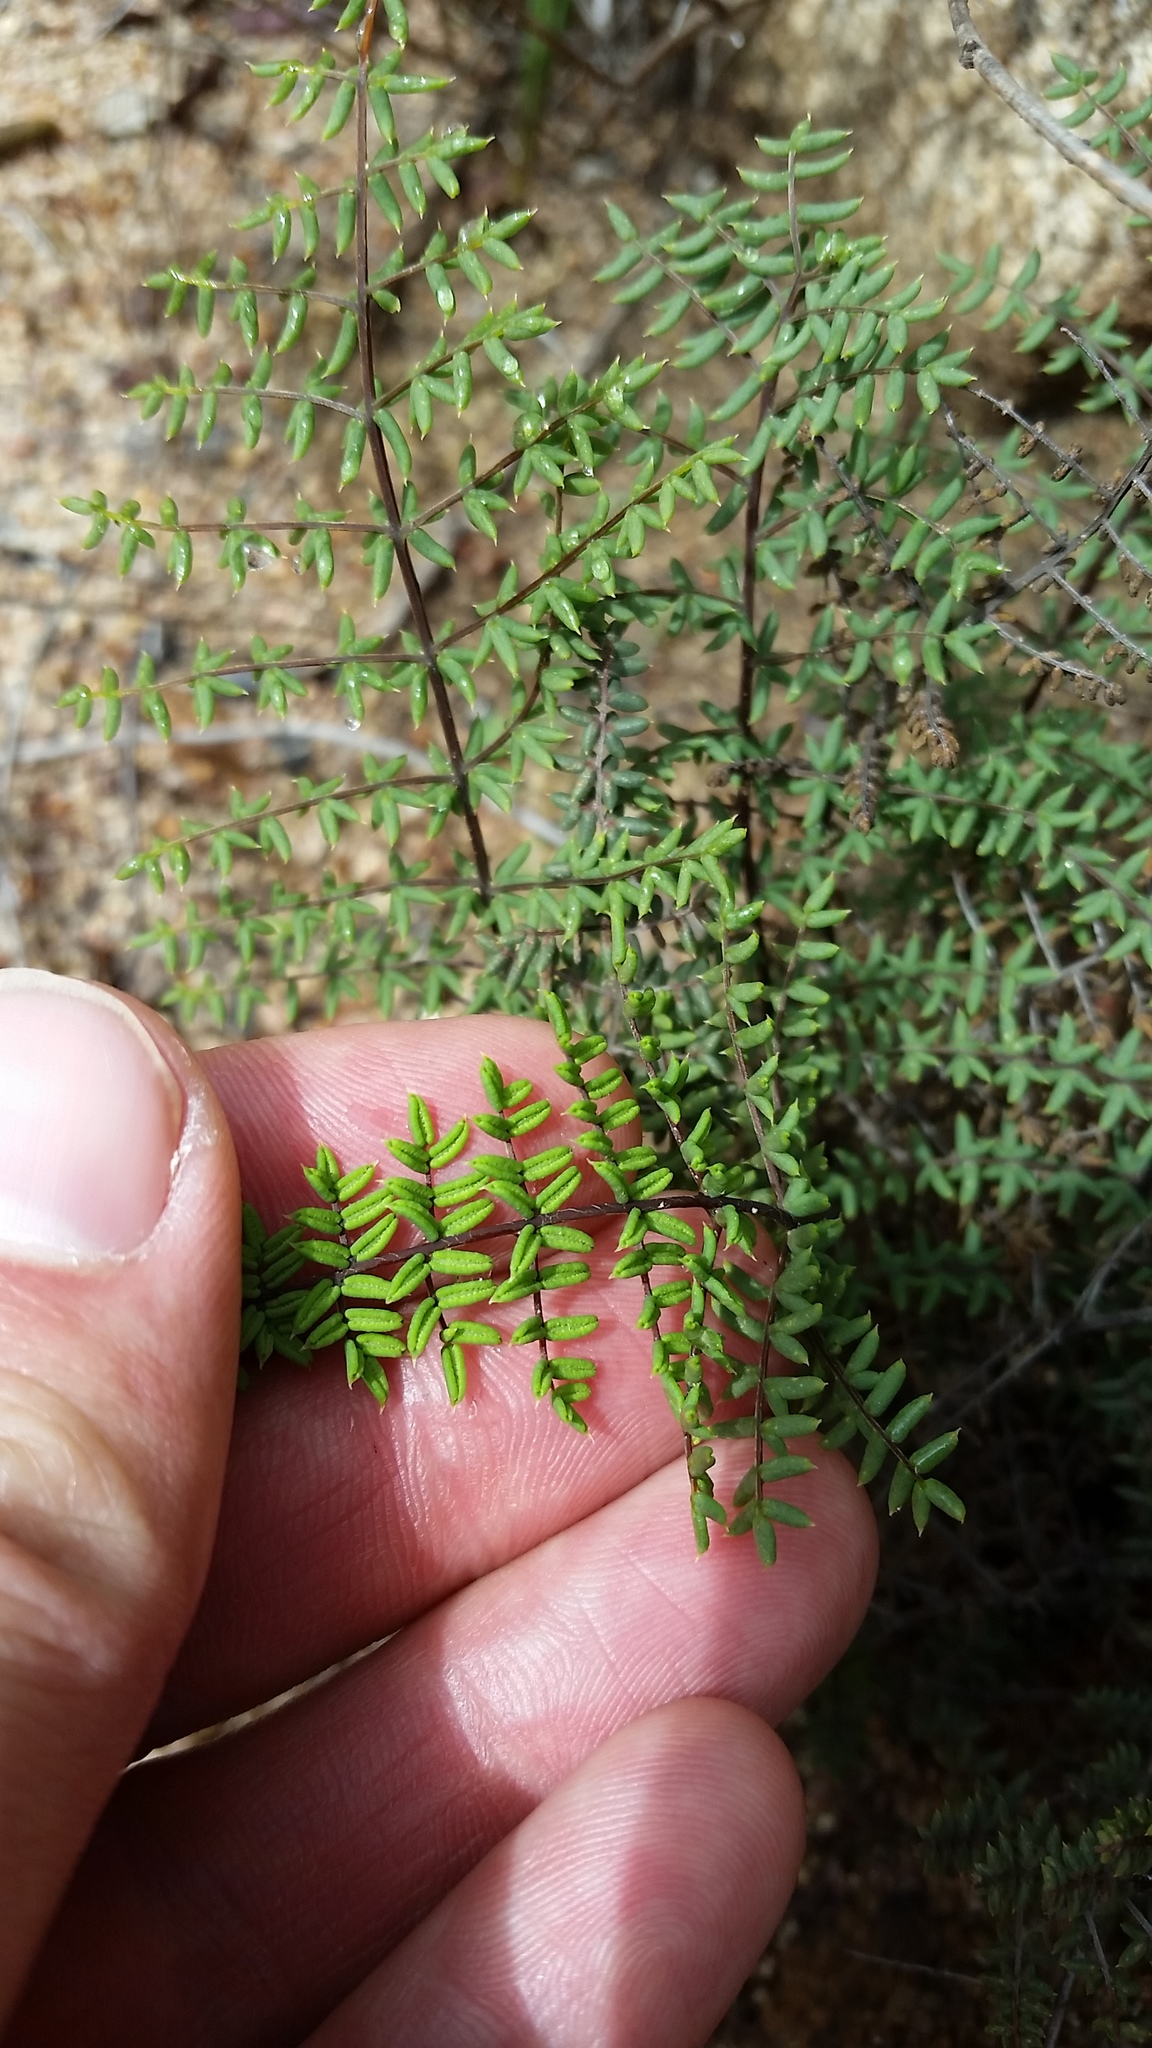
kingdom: Plantae
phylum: Tracheophyta
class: Polypodiopsida
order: Polypodiales
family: Pteridaceae
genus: Pellaea
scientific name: Pellaea mucronata
